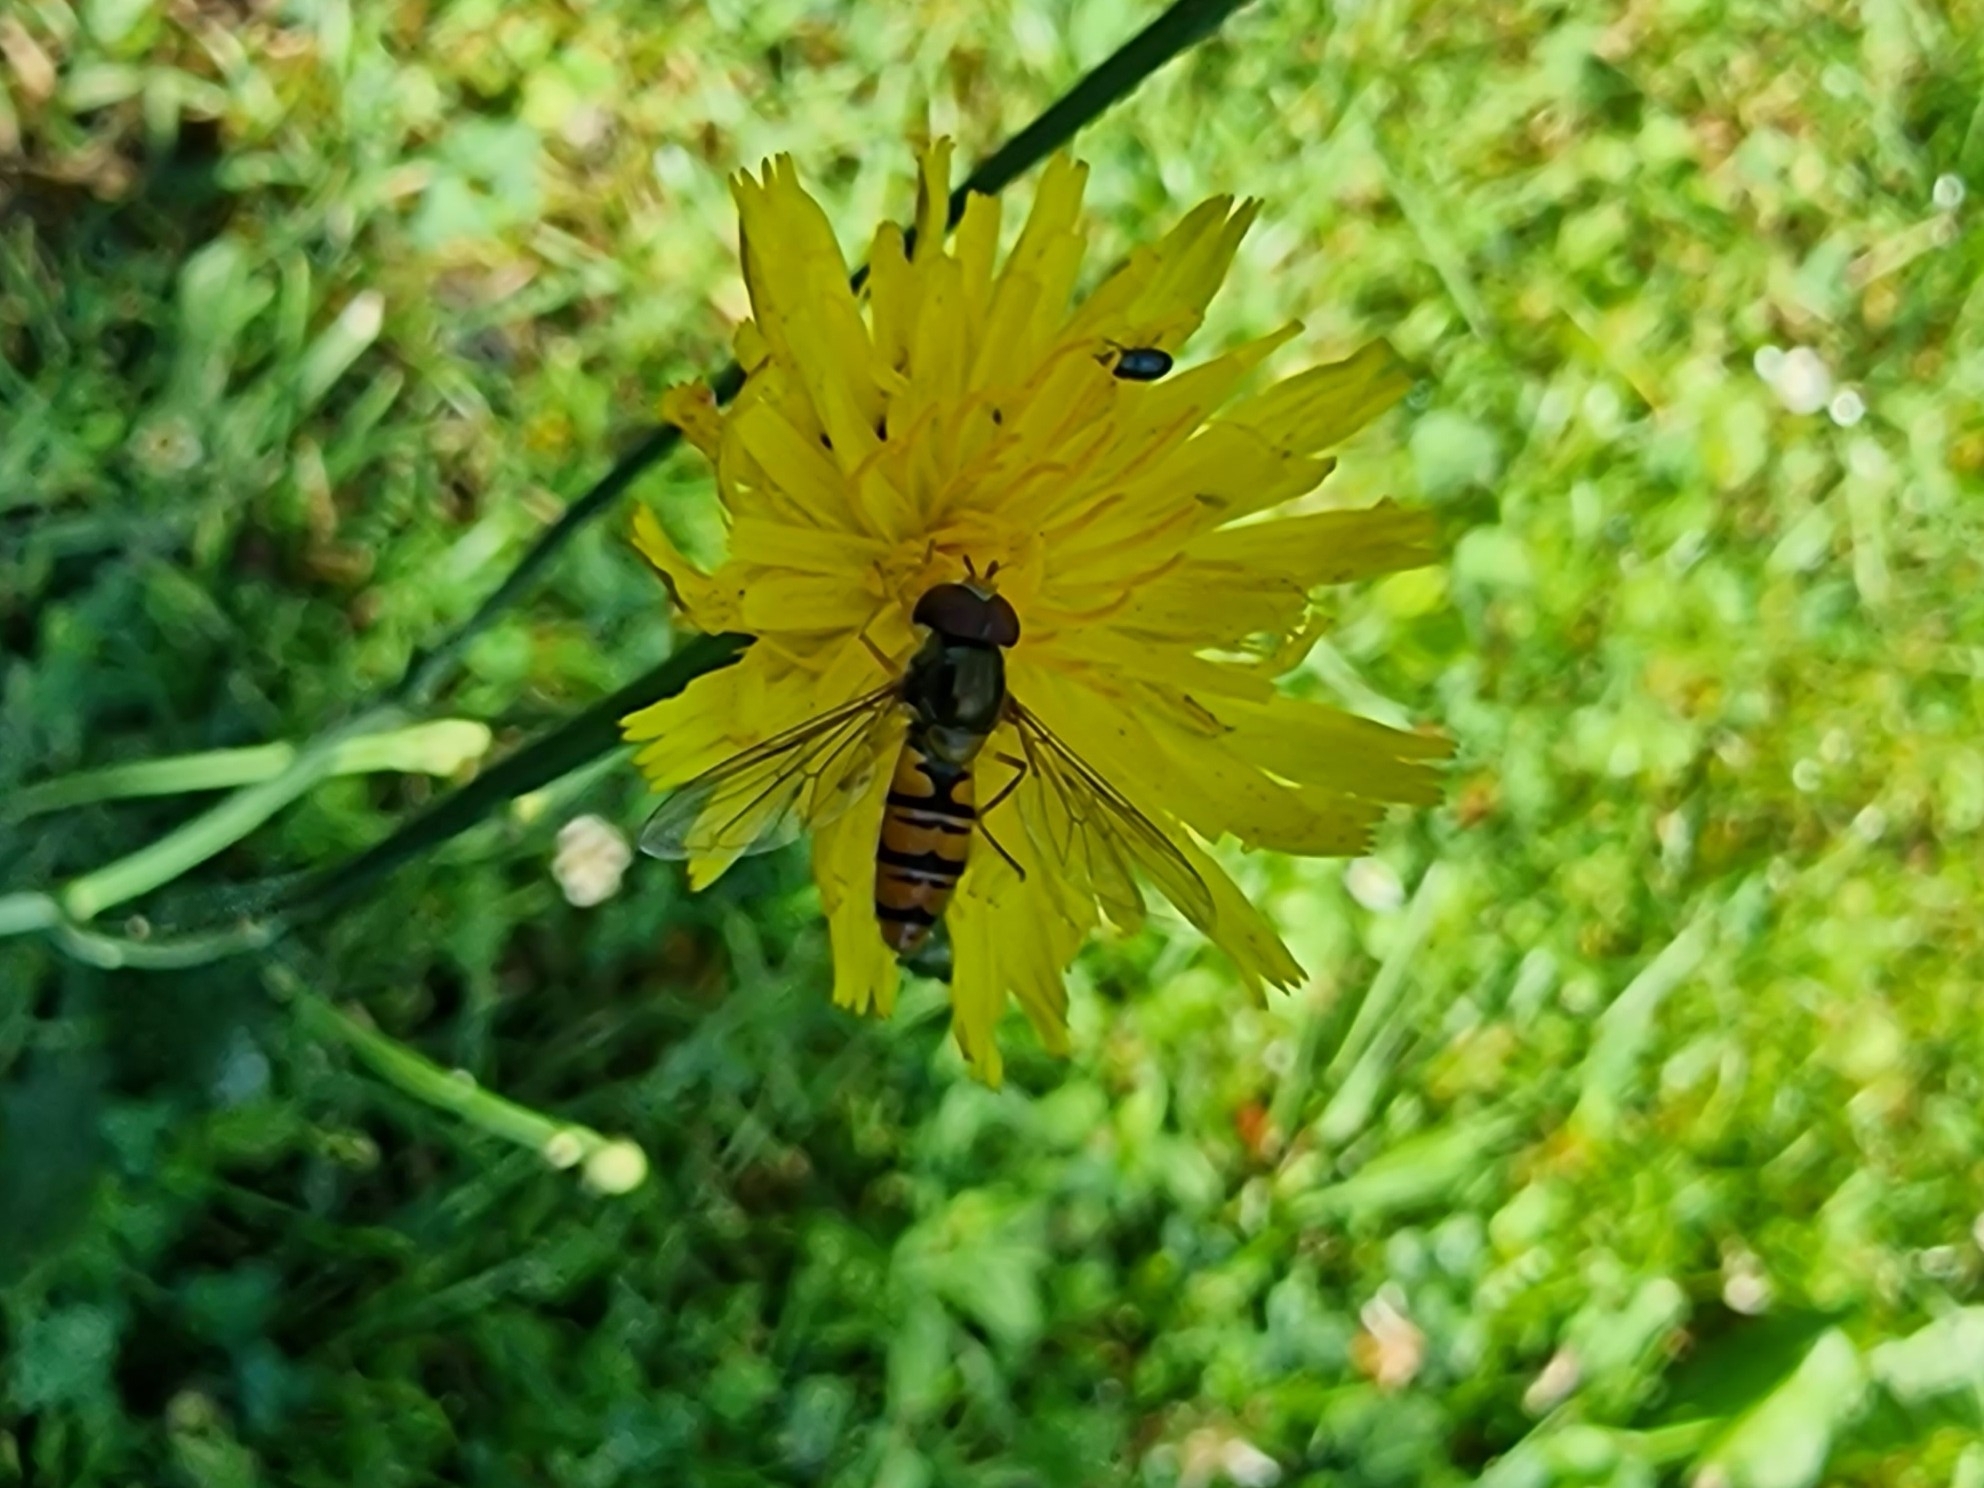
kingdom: Animalia
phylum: Arthropoda
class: Insecta
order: Diptera
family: Syrphidae
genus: Episyrphus
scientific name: Episyrphus balteatus
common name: Marmalade hoverfly
